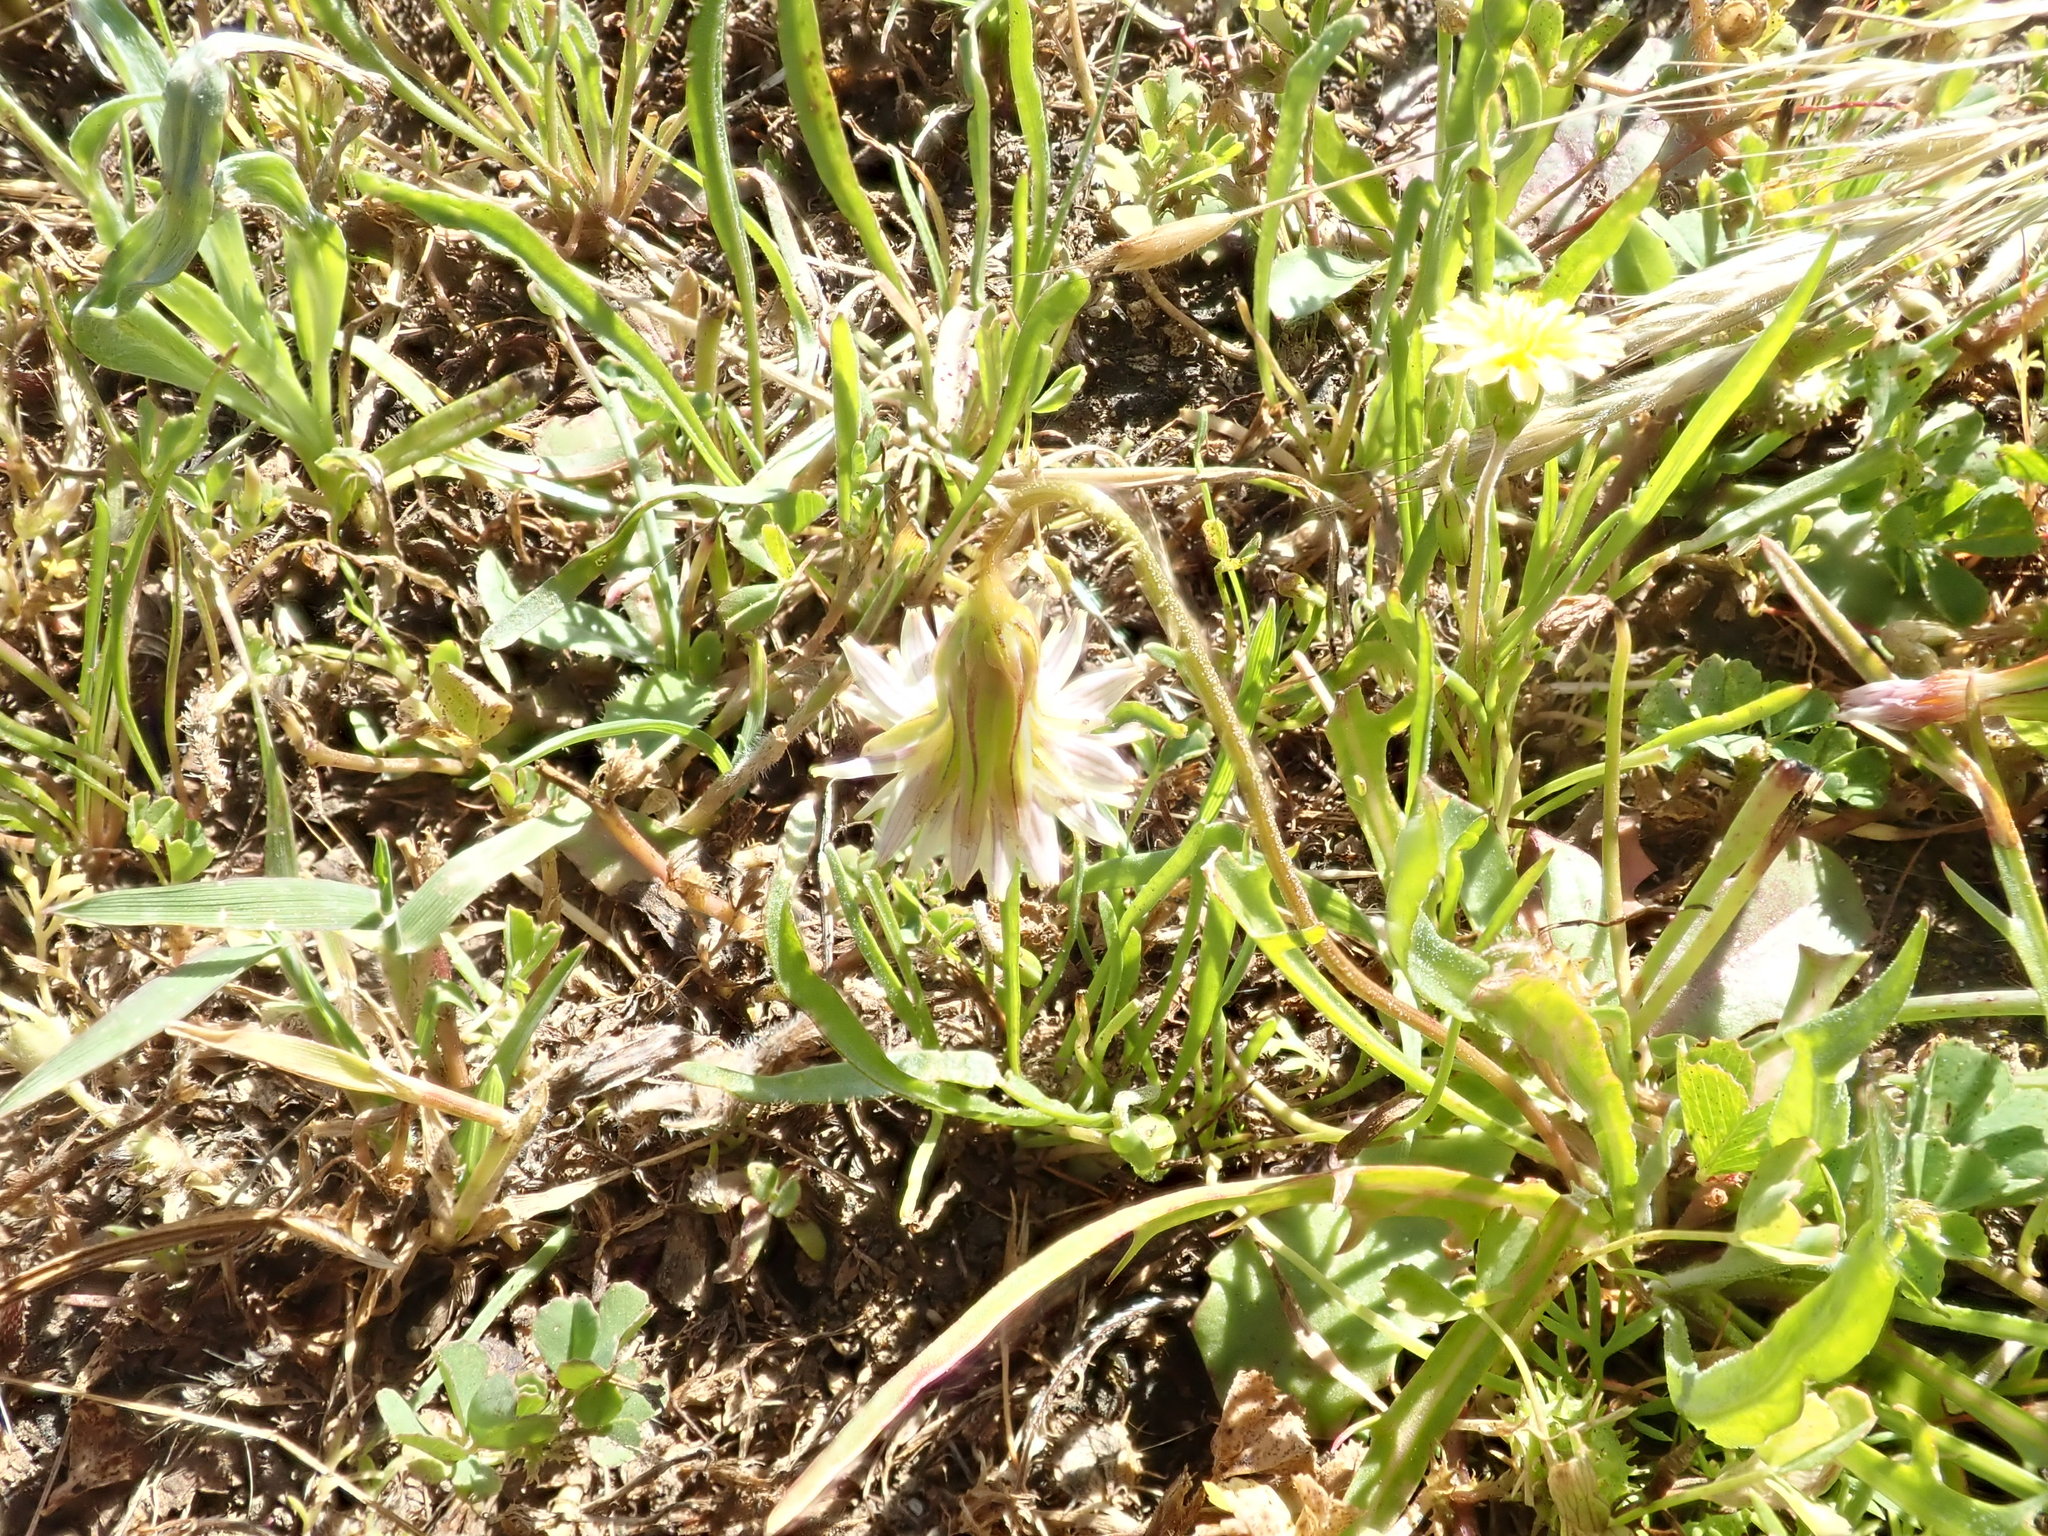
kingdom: Plantae
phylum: Tracheophyta
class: Magnoliopsida
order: Asterales
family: Asteraceae
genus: Microseris
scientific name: Microseris douglasii
